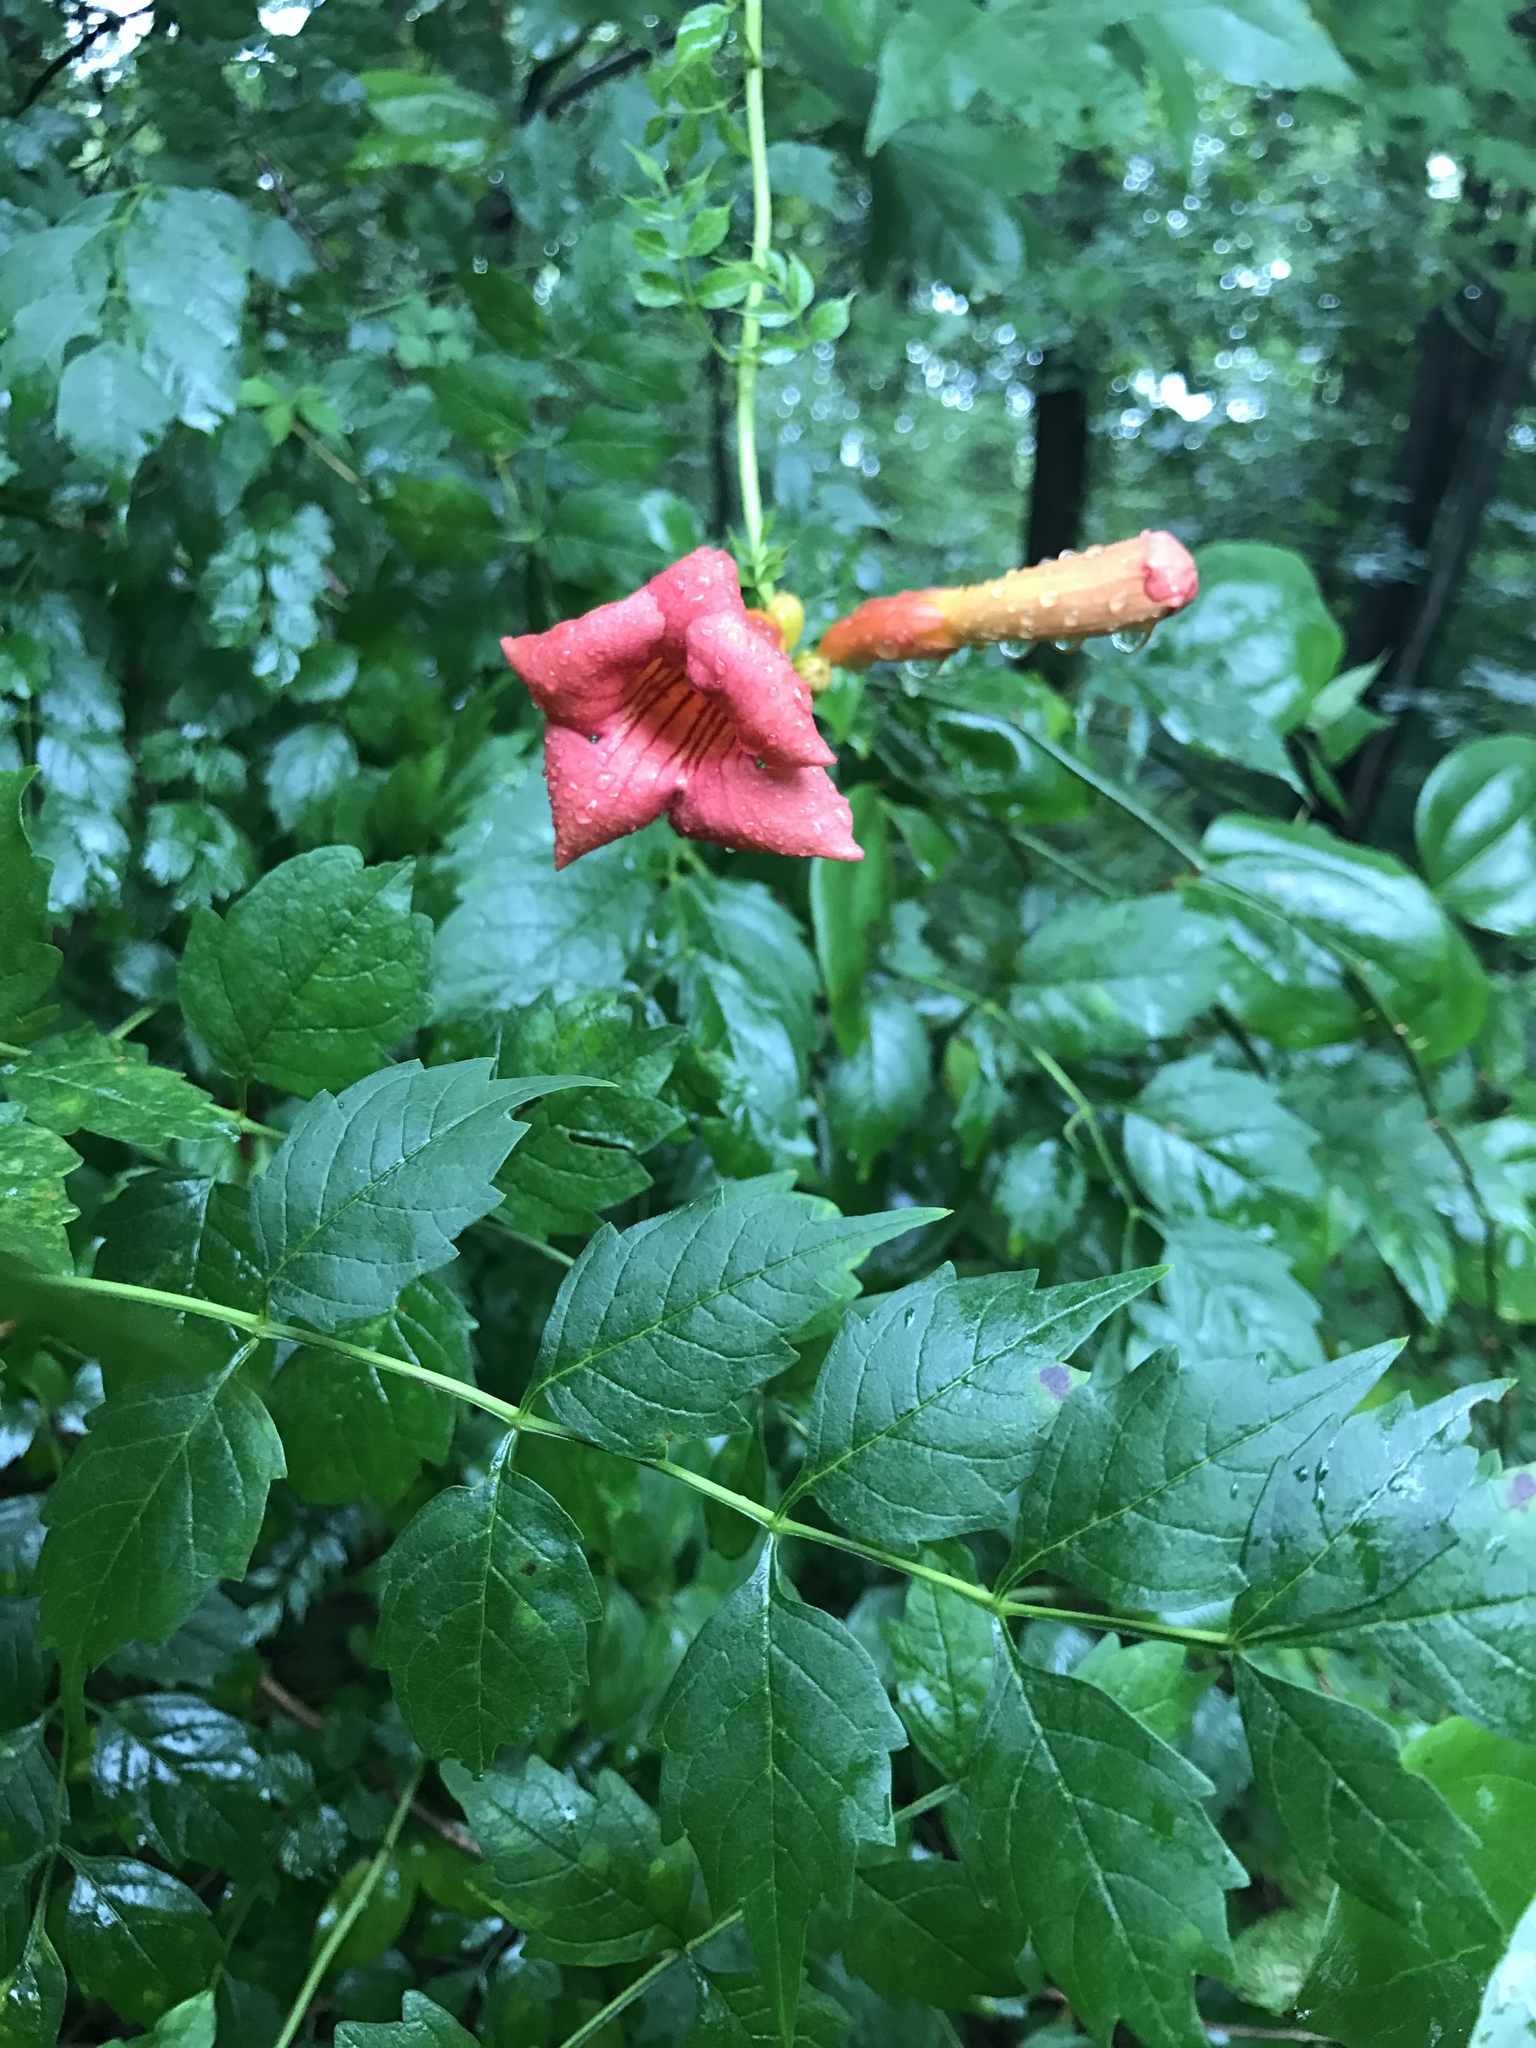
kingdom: Plantae
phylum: Tracheophyta
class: Magnoliopsida
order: Lamiales
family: Bignoniaceae
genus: Campsis
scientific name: Campsis radicans
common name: Trumpet-creeper
